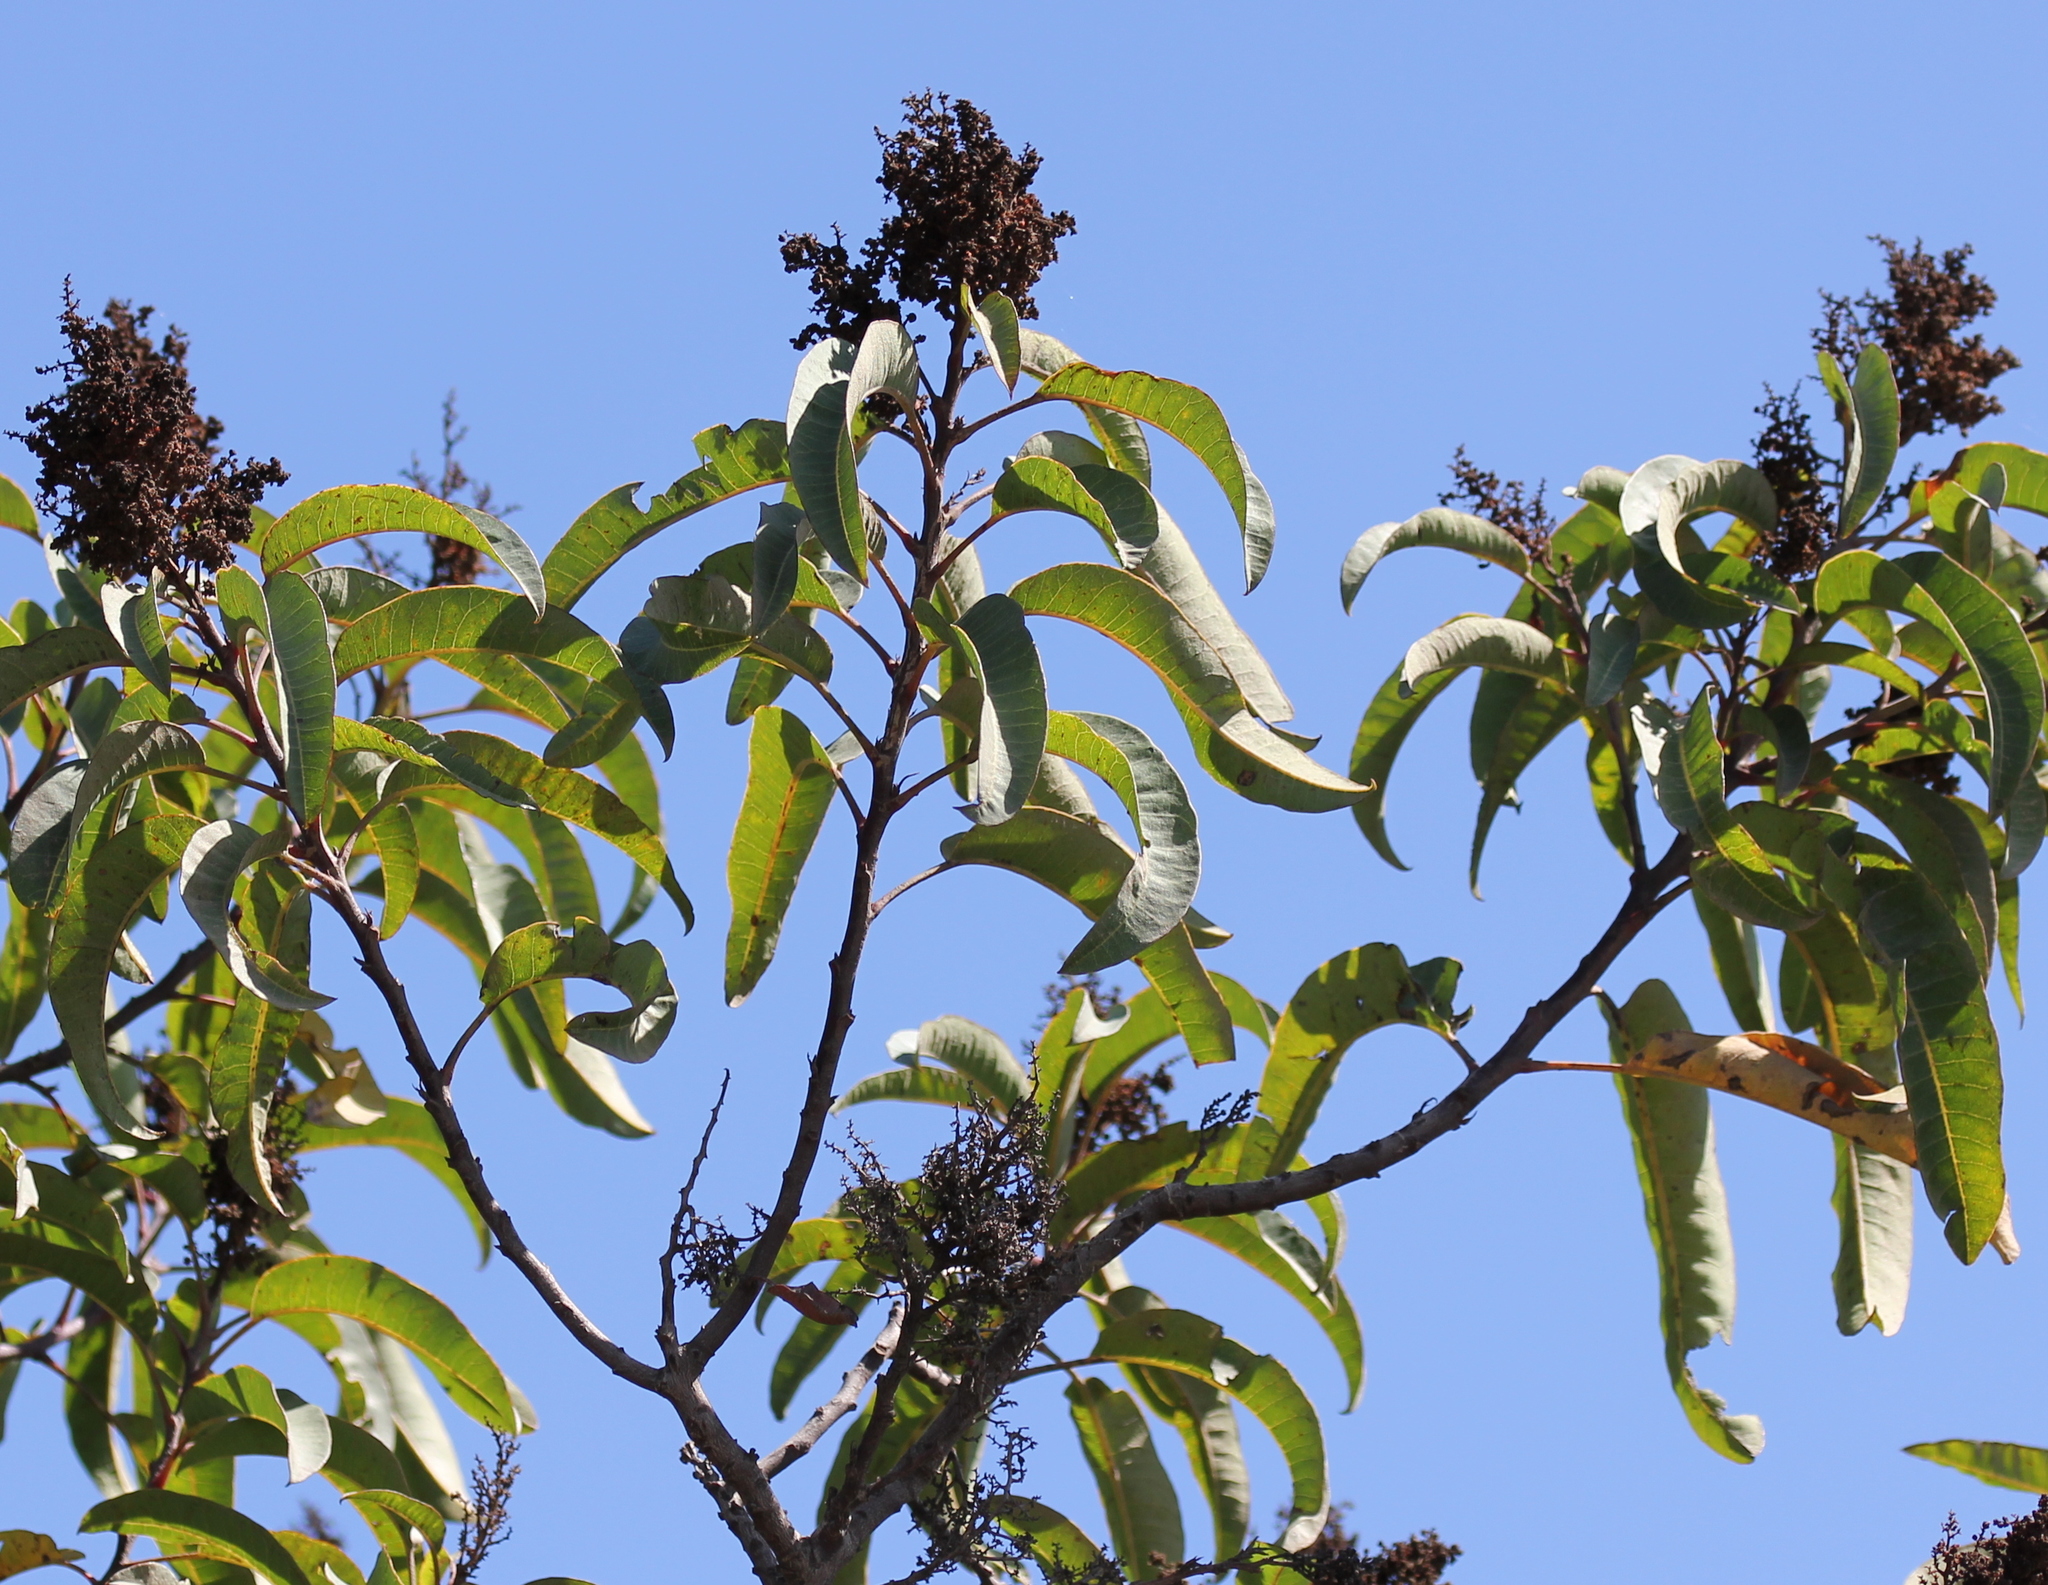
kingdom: Plantae
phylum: Tracheophyta
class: Magnoliopsida
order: Sapindales
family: Anacardiaceae
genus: Malosma
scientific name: Malosma laurina
